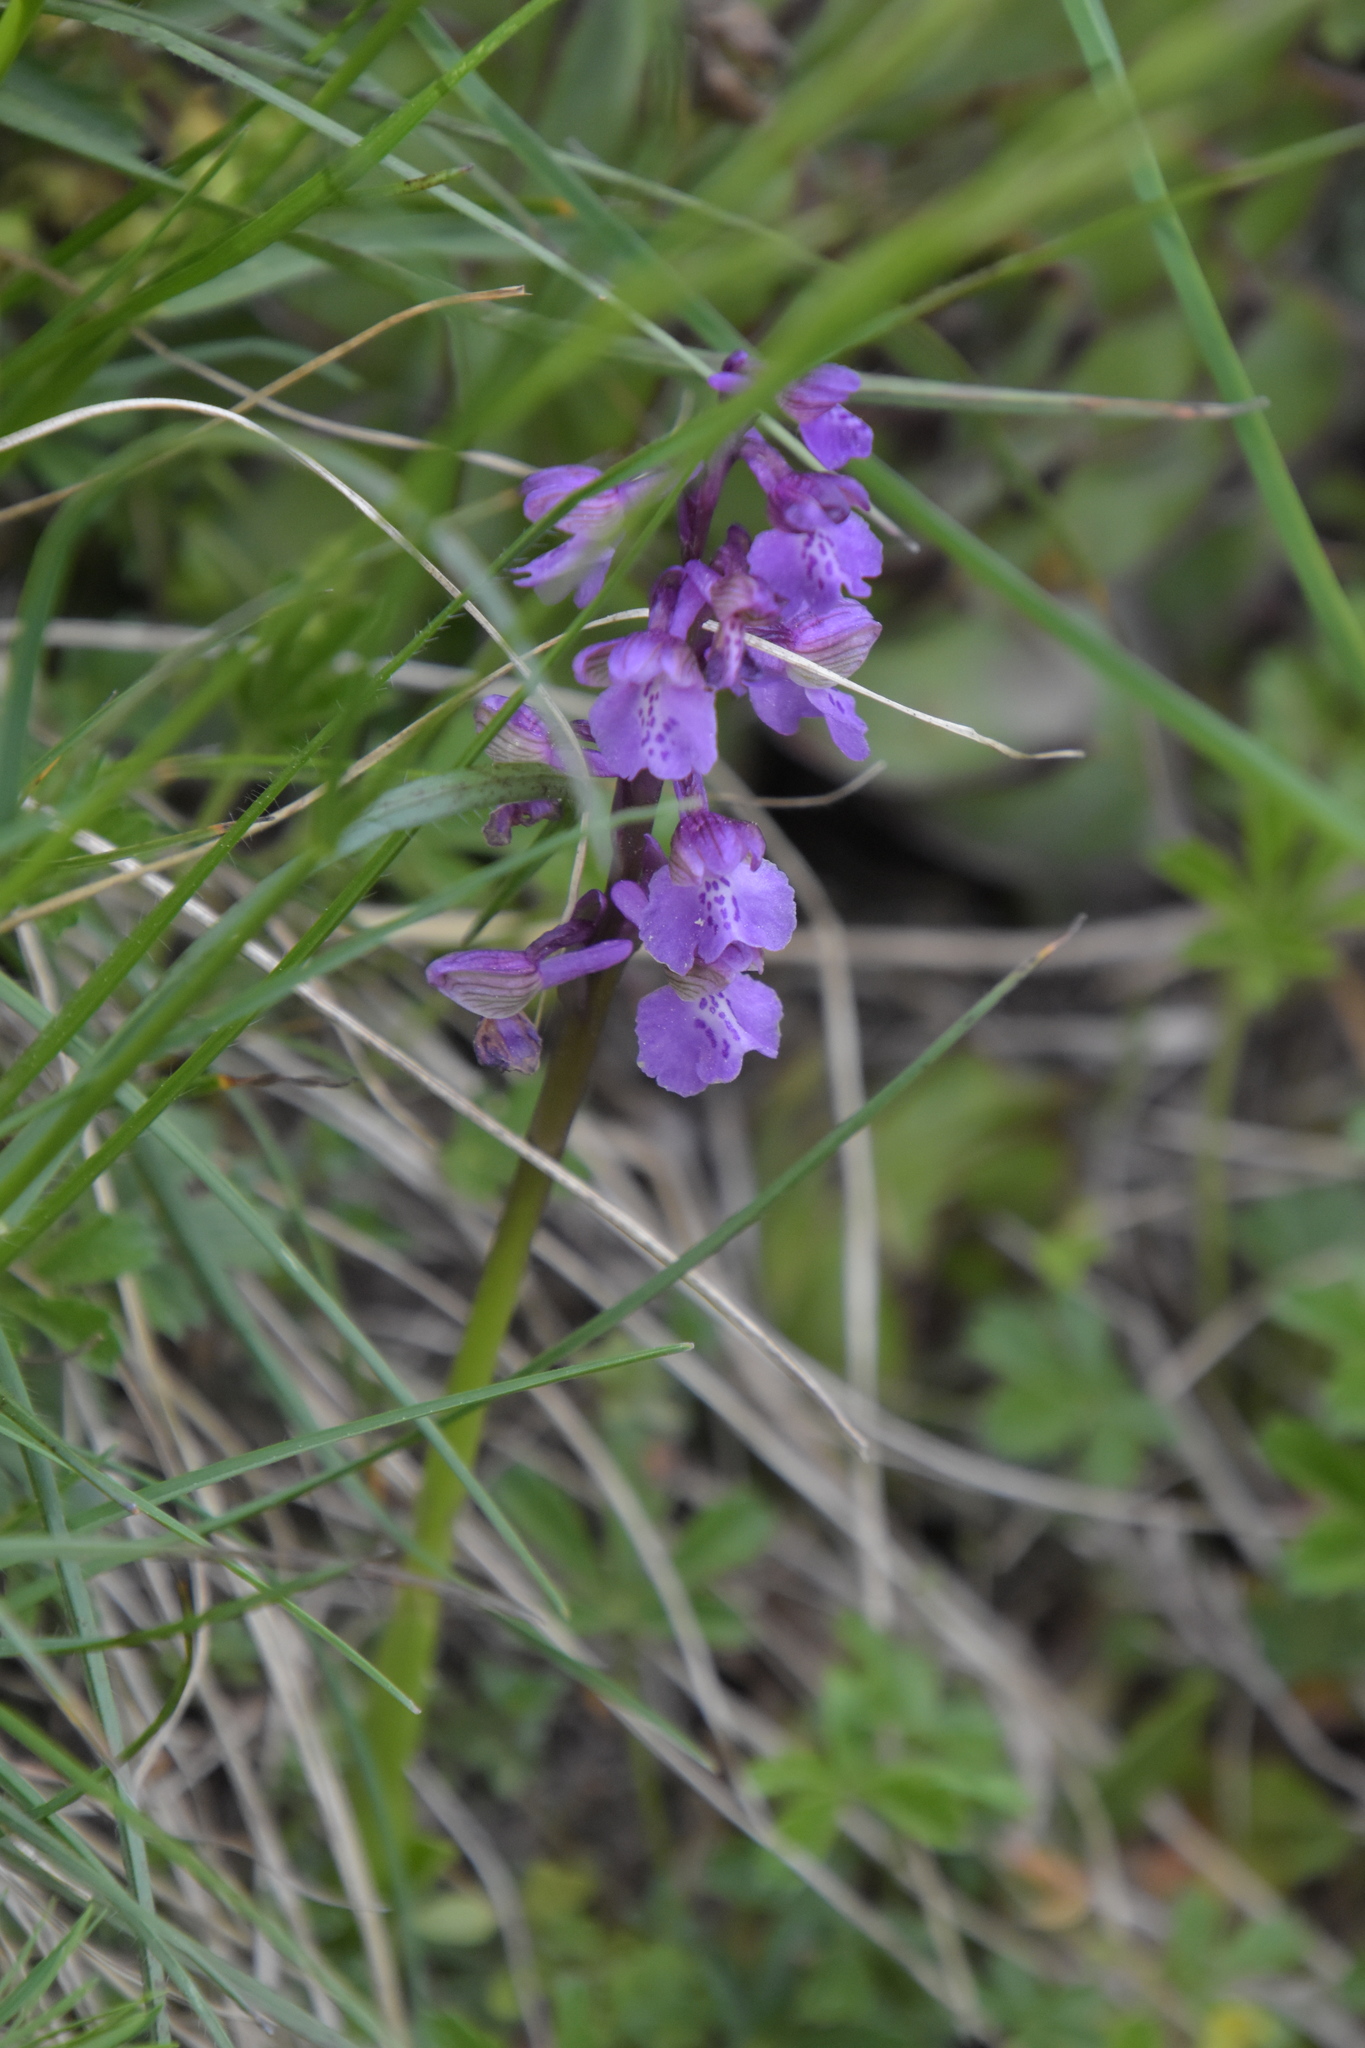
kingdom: Plantae
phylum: Tracheophyta
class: Liliopsida
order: Asparagales
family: Orchidaceae
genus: Anacamptis
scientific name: Anacamptis morio
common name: Green-winged orchid
